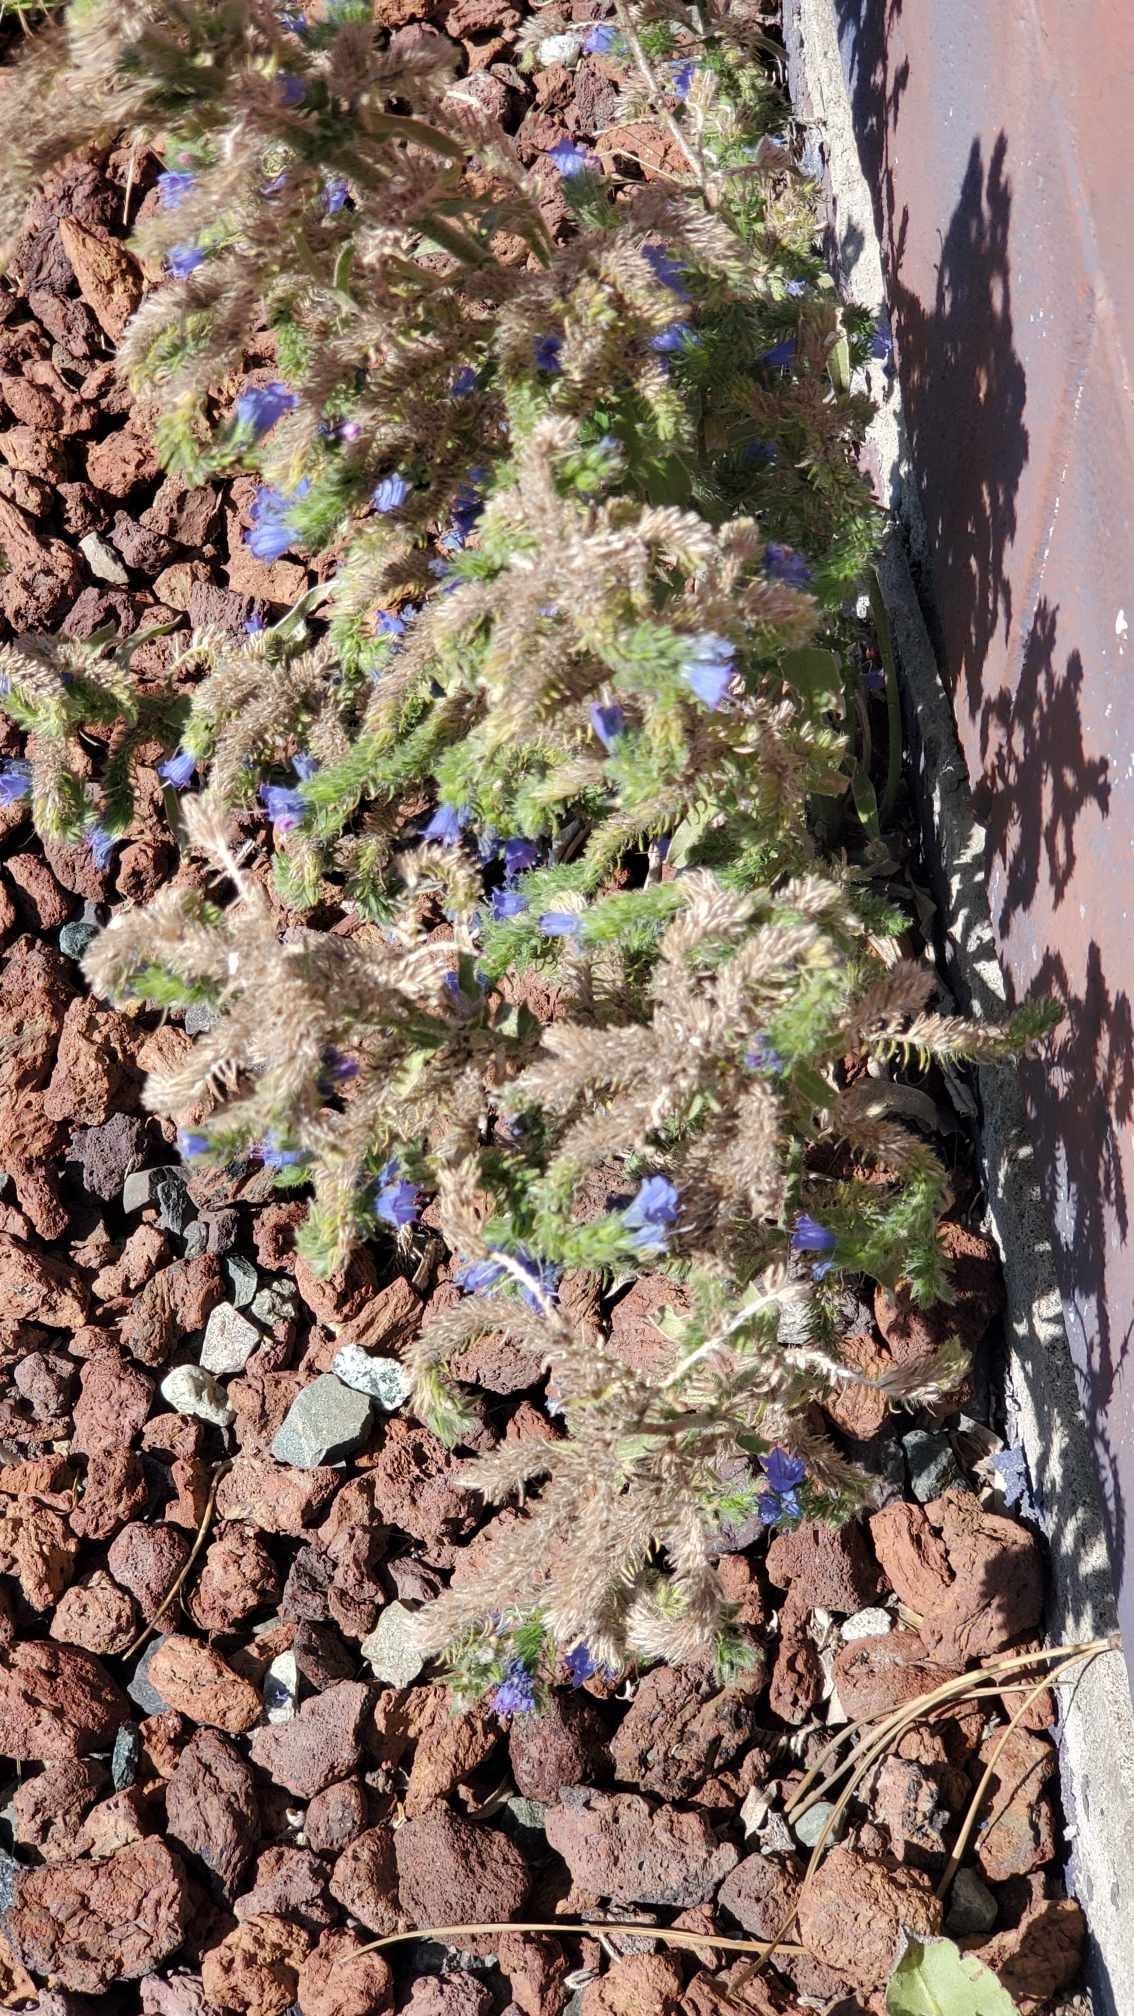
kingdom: Plantae
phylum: Tracheophyta
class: Magnoliopsida
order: Boraginales
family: Boraginaceae
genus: Echium
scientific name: Echium vulgare
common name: Common viper's bugloss
